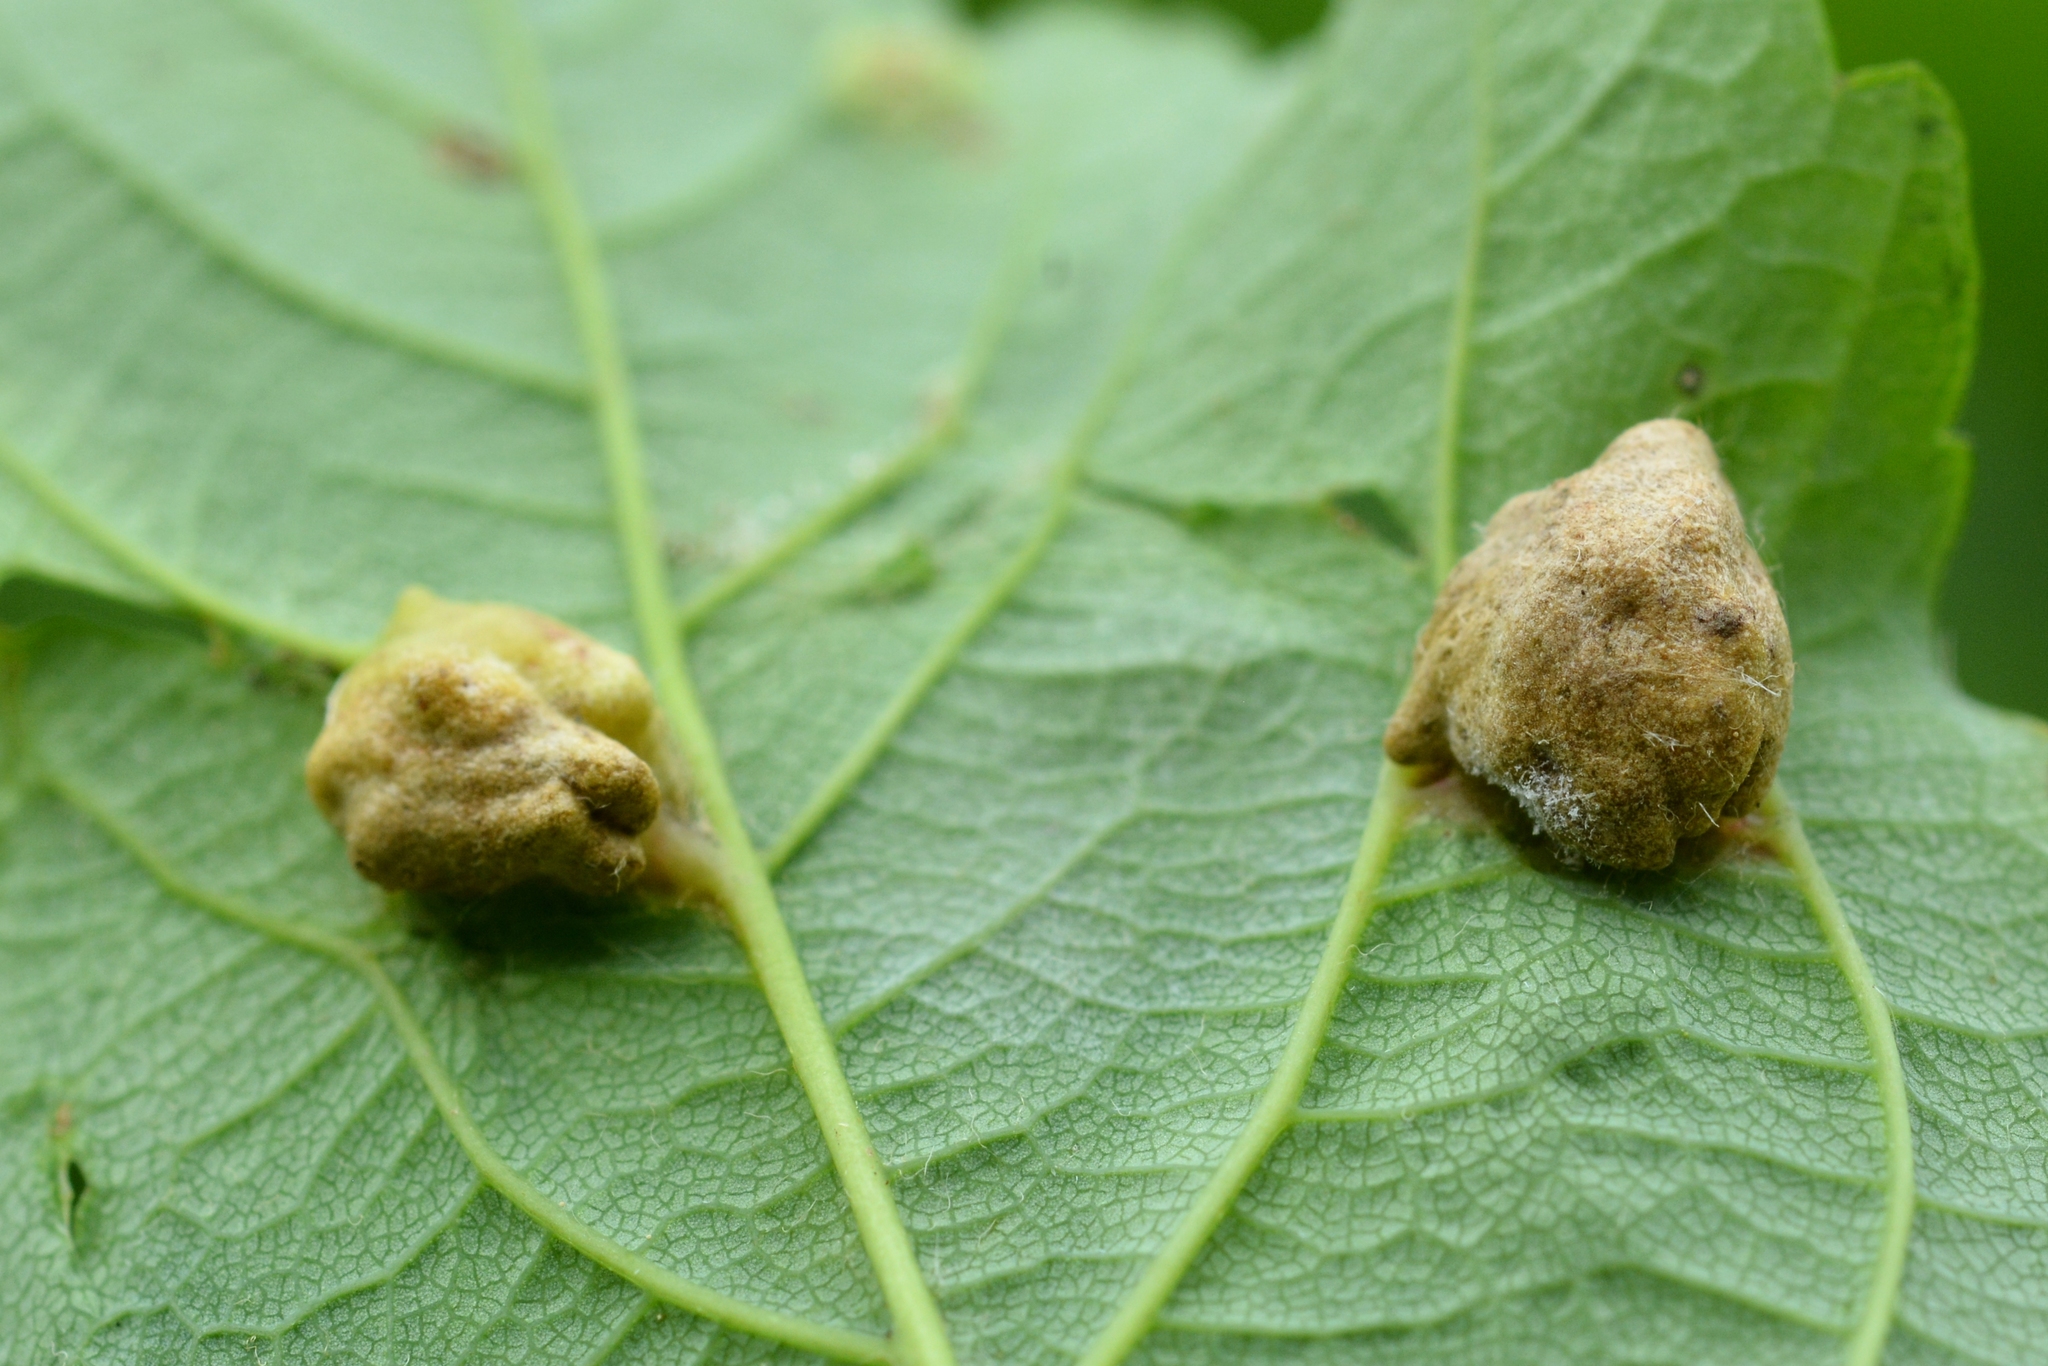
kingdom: Animalia
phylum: Arthropoda
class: Insecta
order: Hymenoptera
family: Eulophidae
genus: Dichatomus
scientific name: Dichatomus acerinus
